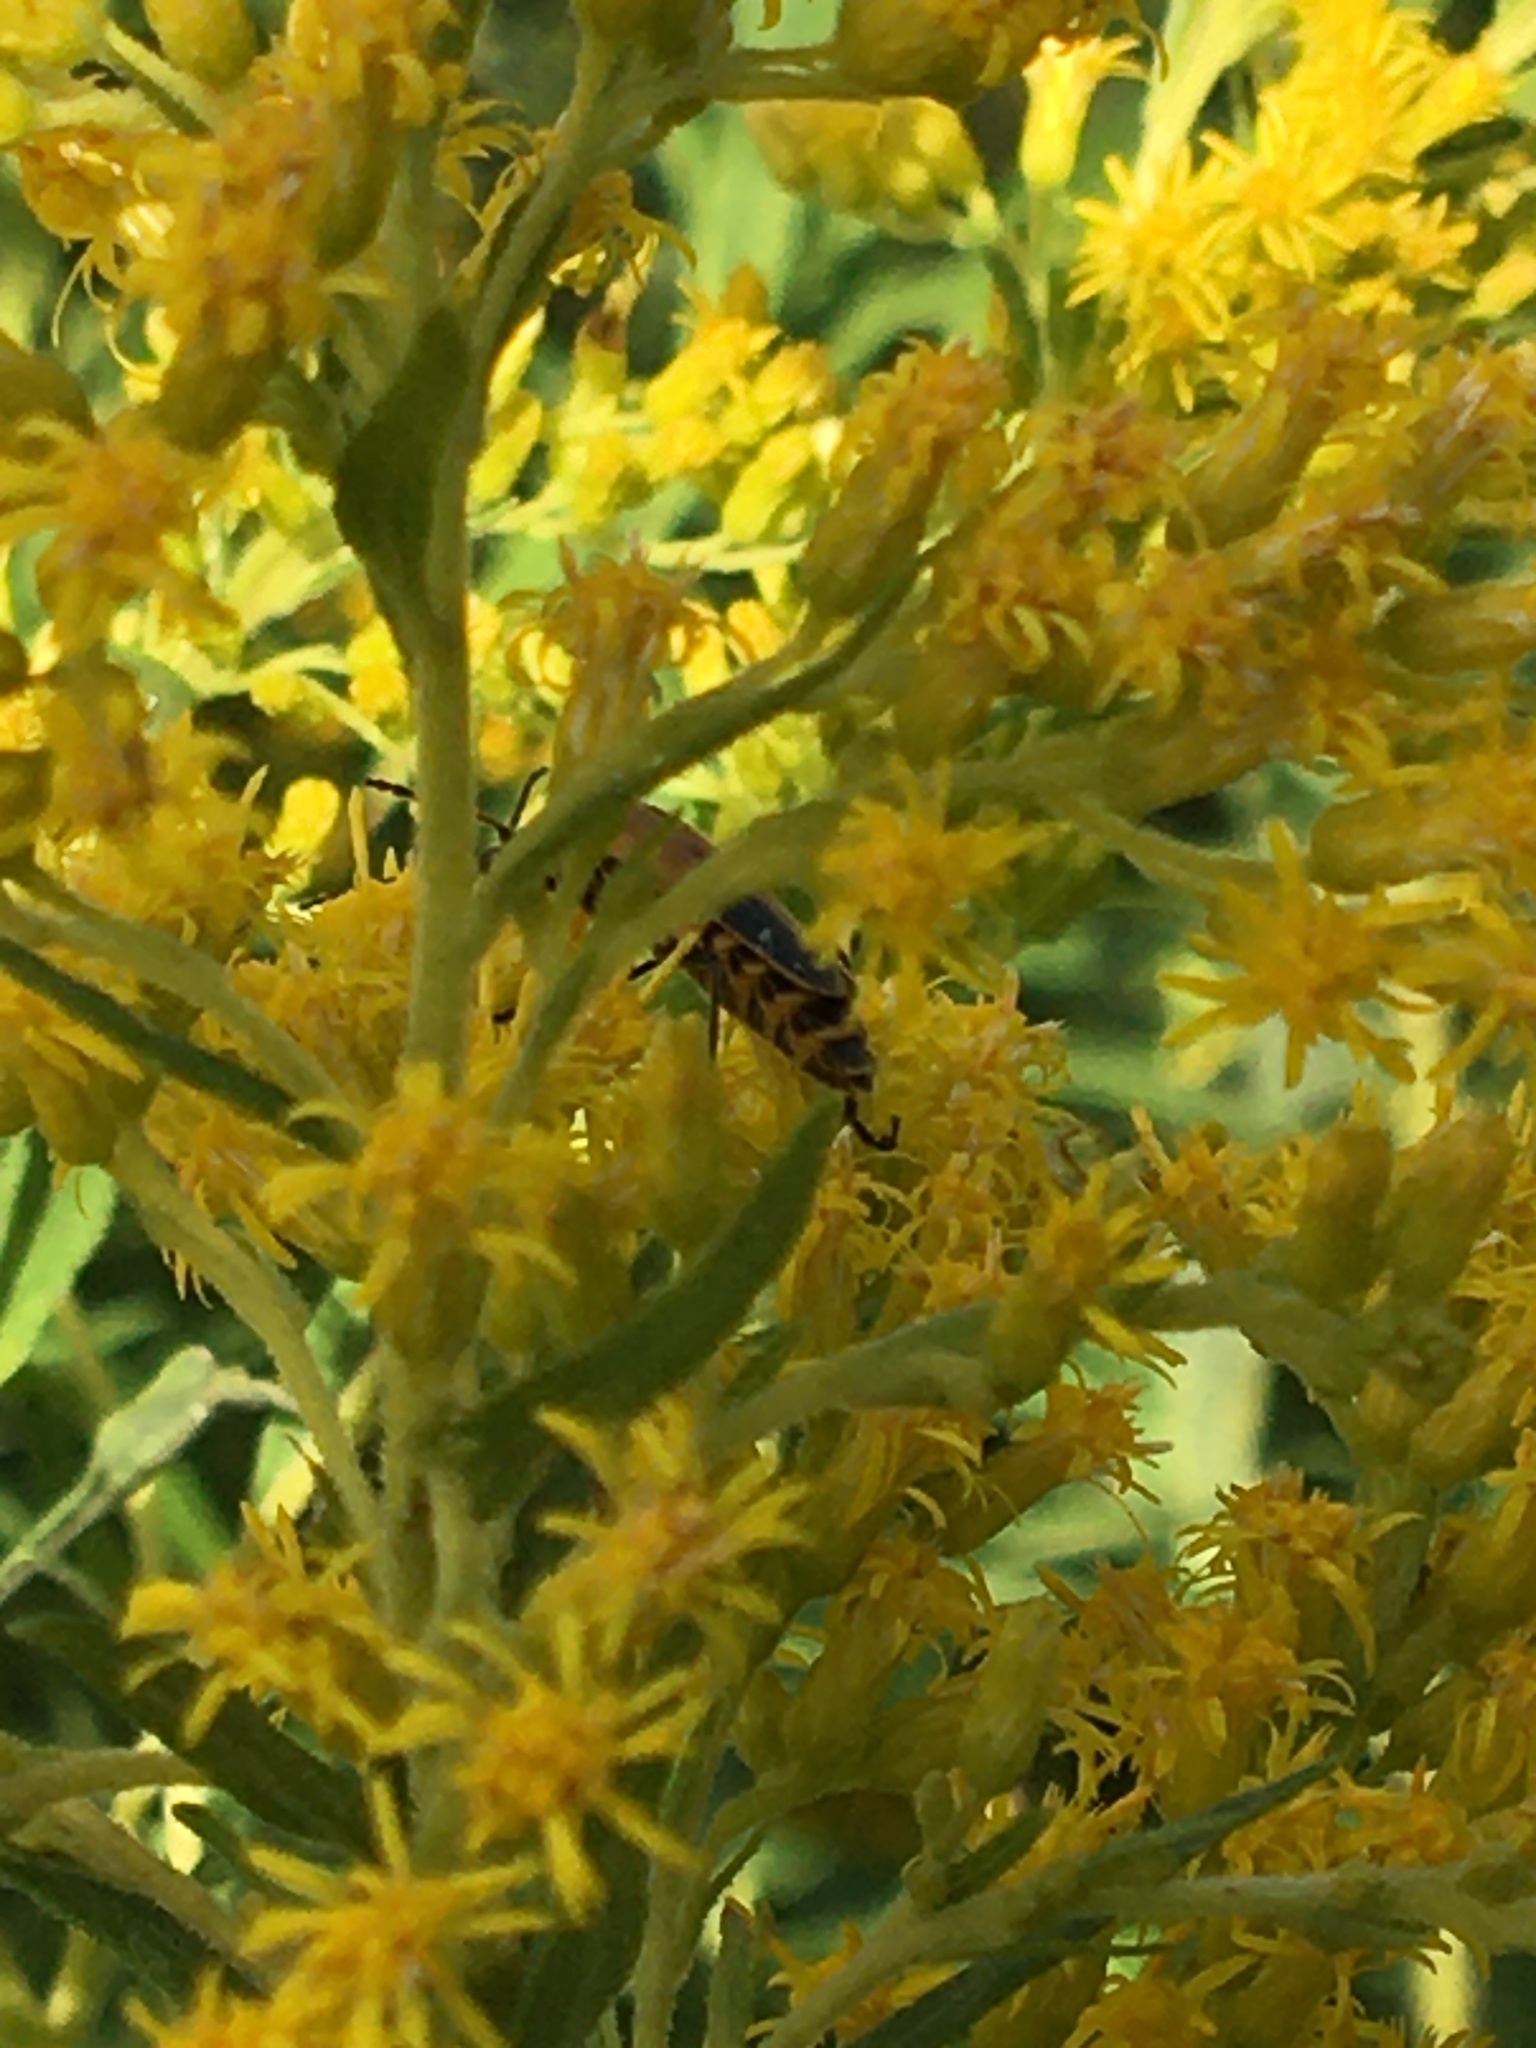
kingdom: Animalia
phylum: Arthropoda
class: Insecta
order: Coleoptera
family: Cantharidae
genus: Chauliognathus
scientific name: Chauliognathus pensylvanicus
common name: Goldenrod soldier beetle
